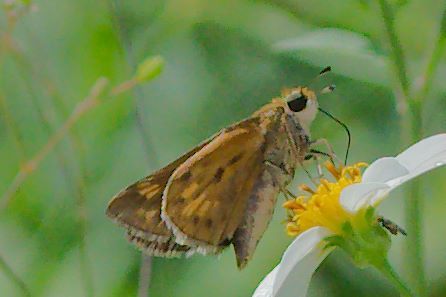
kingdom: Animalia
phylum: Arthropoda
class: Insecta
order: Lepidoptera
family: Hesperiidae
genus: Hylephila
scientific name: Hylephila phyleus
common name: Fiery skipper
